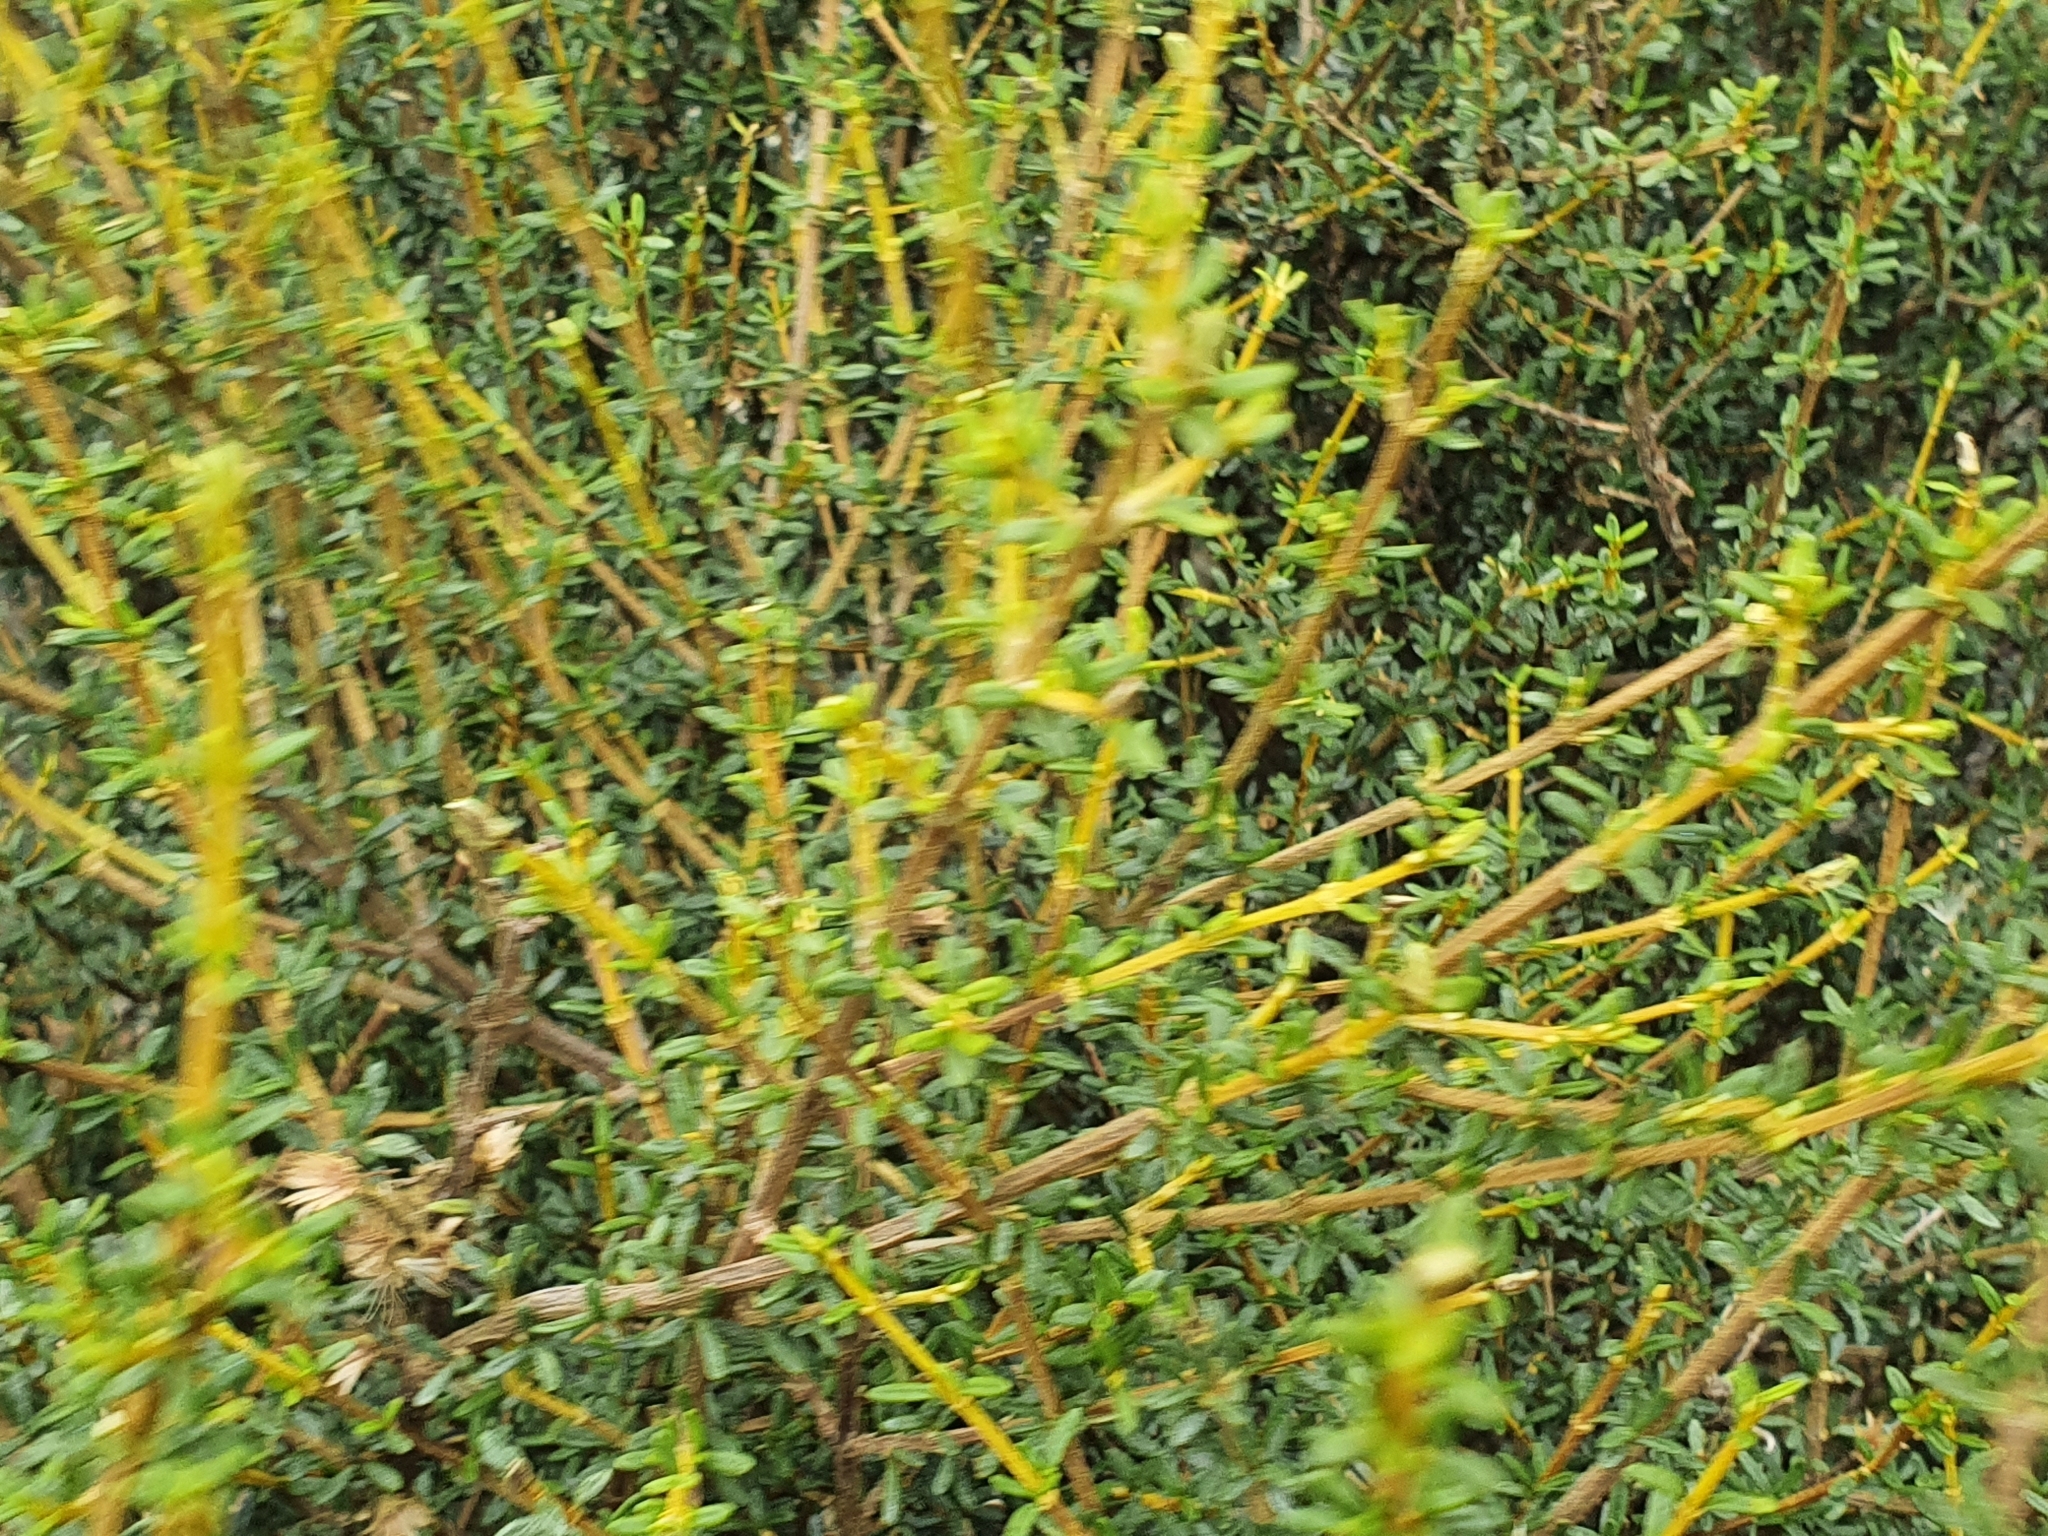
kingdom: Plantae
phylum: Tracheophyta
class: Magnoliopsida
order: Asterales
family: Asteraceae
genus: Olearia
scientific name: Olearia solandri
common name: Coastal daisybush
